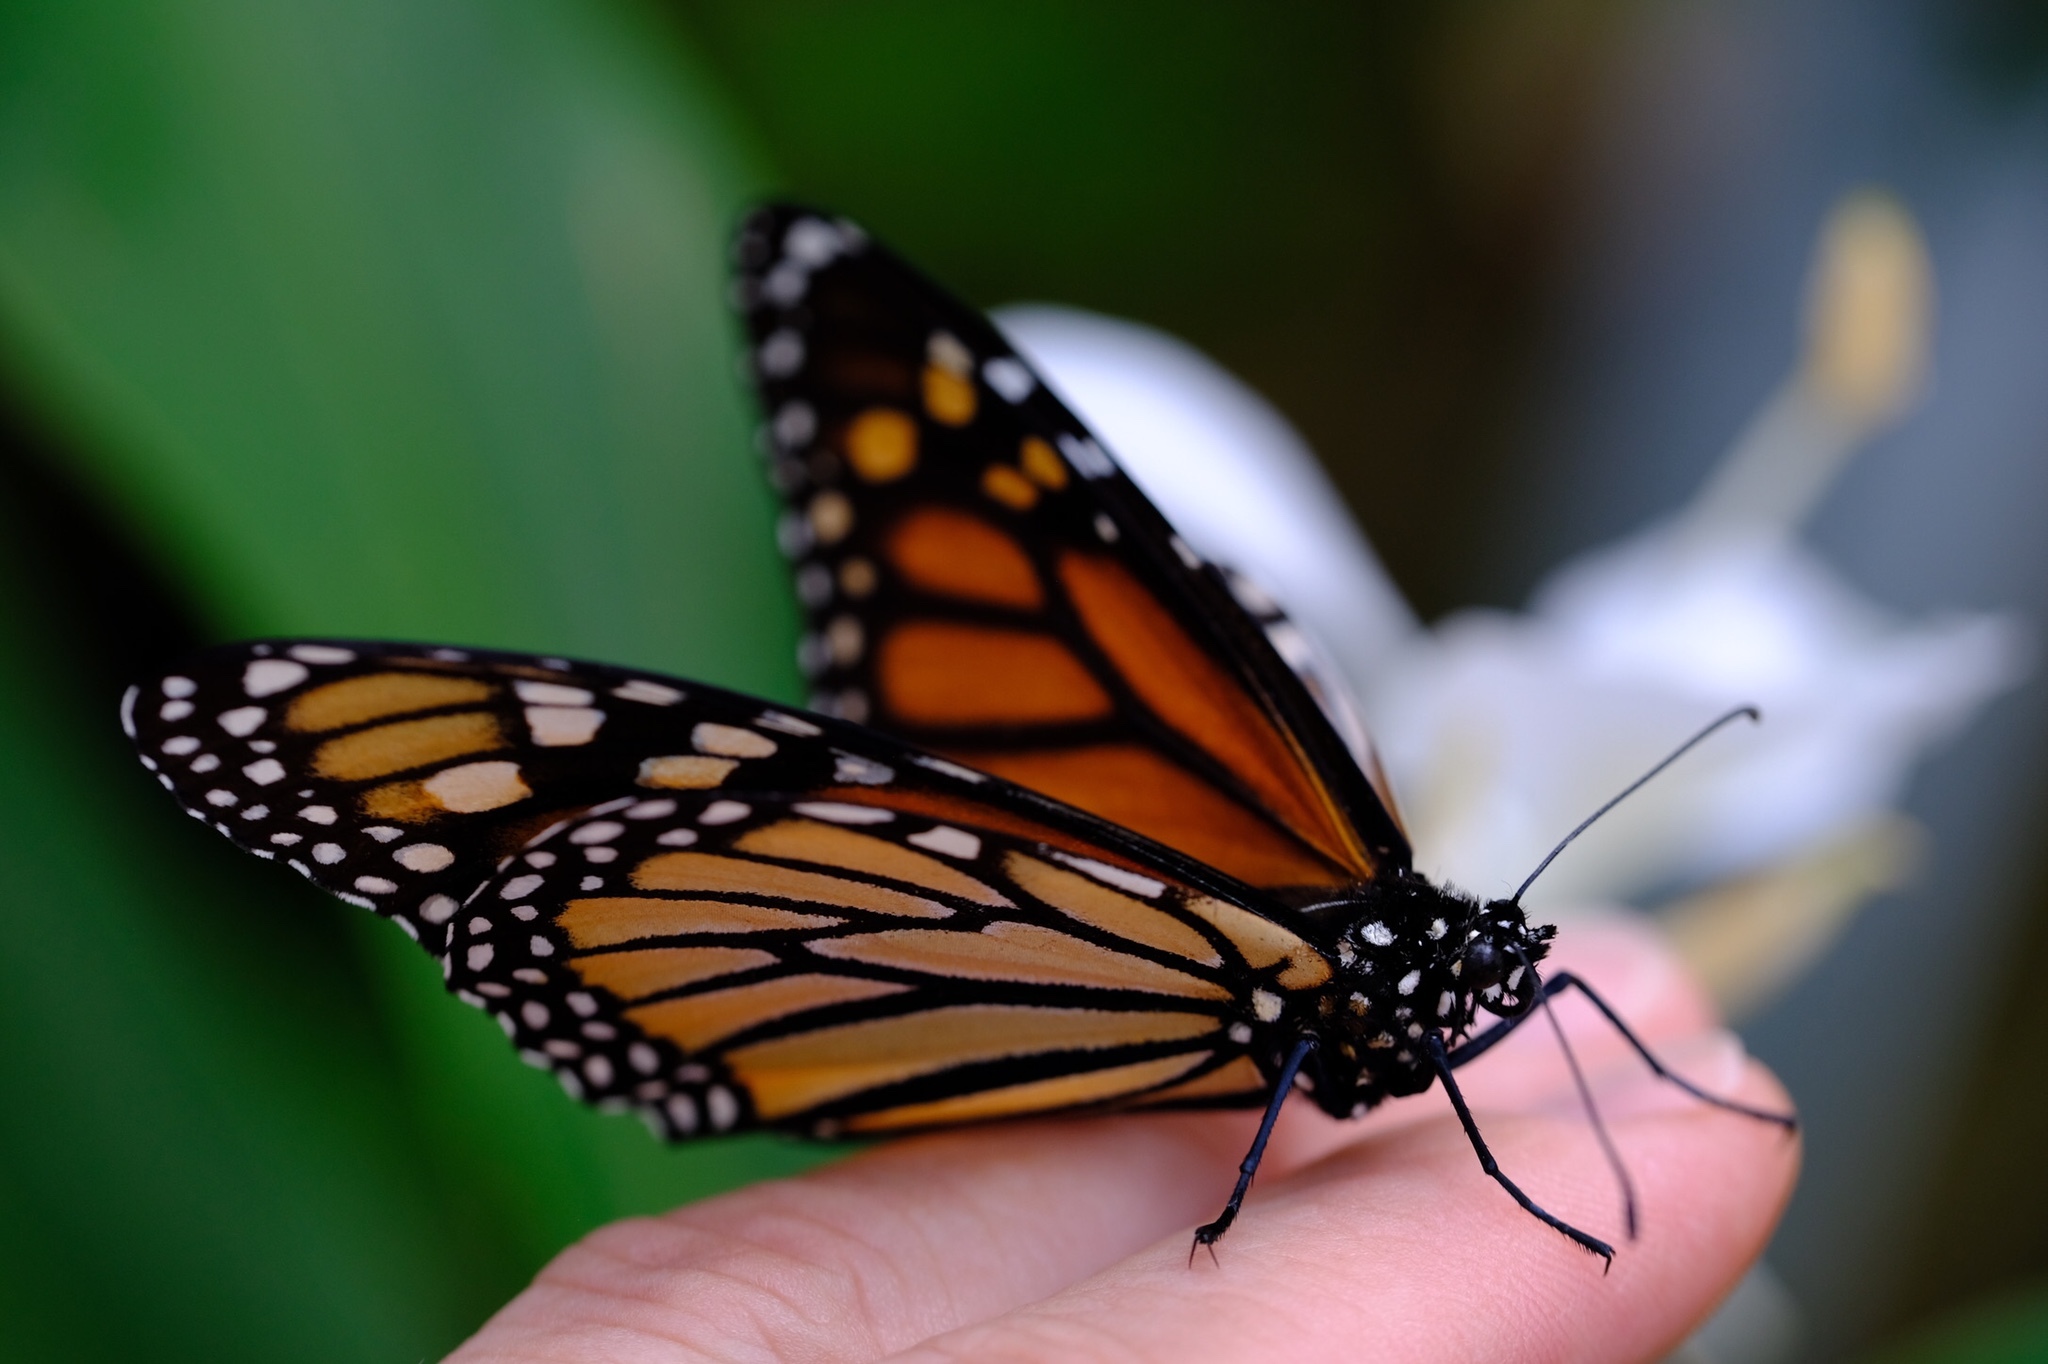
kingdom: Animalia
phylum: Arthropoda
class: Insecta
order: Lepidoptera
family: Nymphalidae
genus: Danaus
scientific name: Danaus plexippus
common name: Monarch
